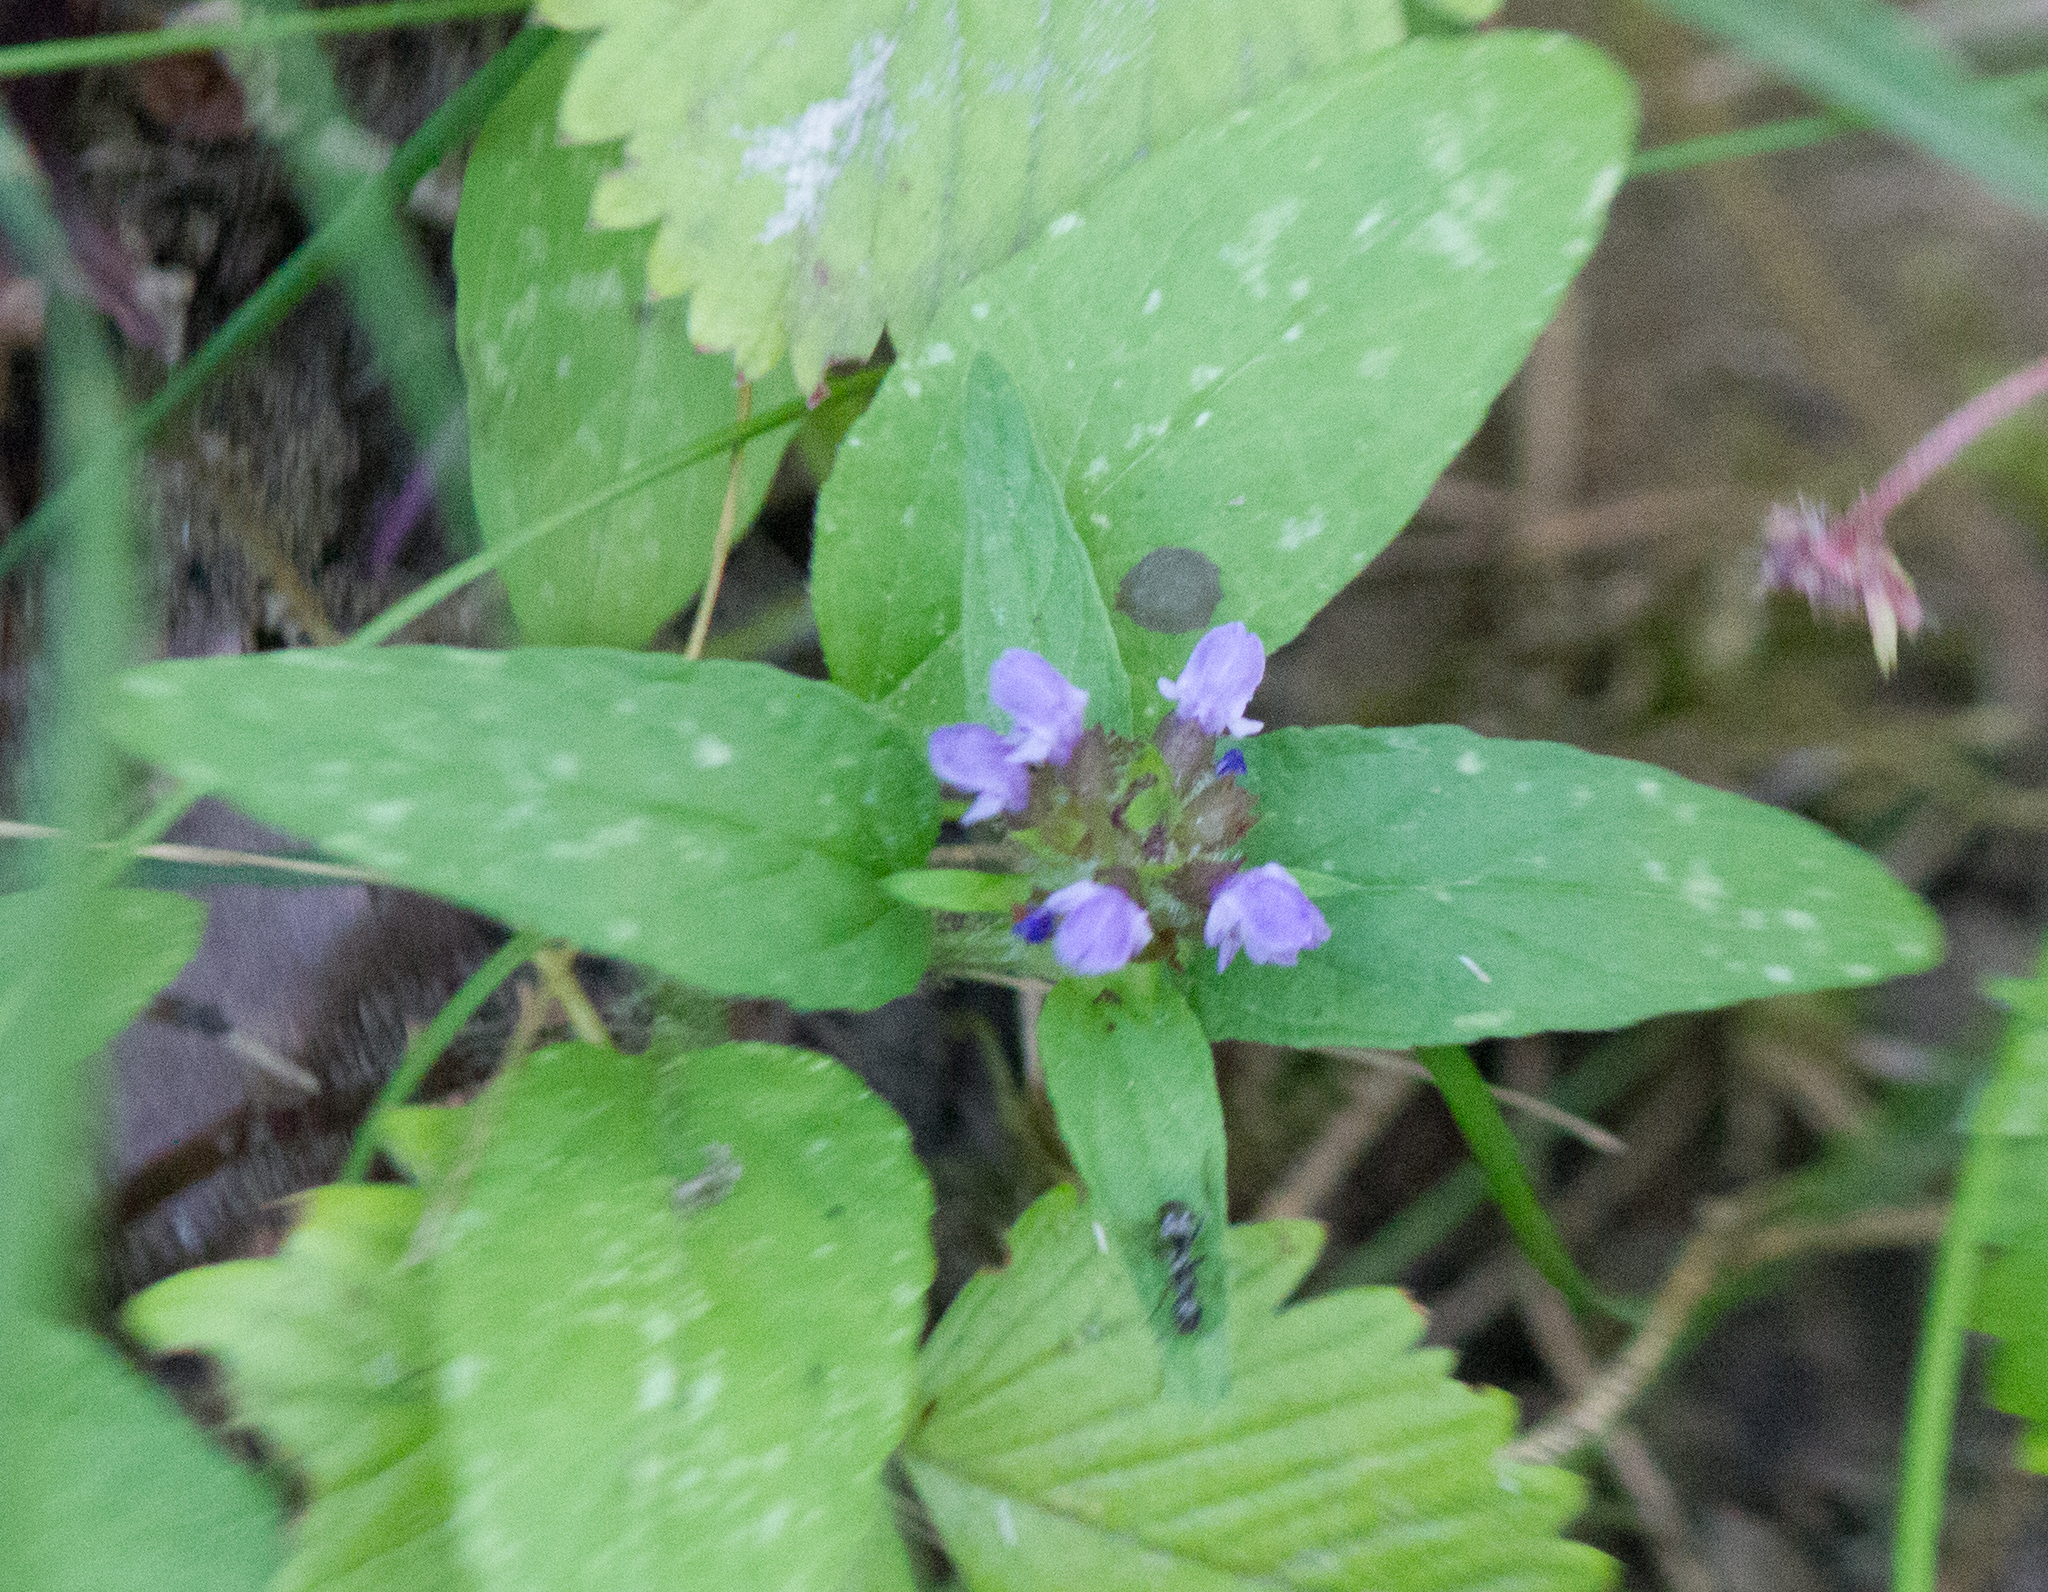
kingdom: Plantae
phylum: Tracheophyta
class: Magnoliopsida
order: Lamiales
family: Lamiaceae
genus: Prunella
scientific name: Prunella vulgaris
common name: Heal-all
